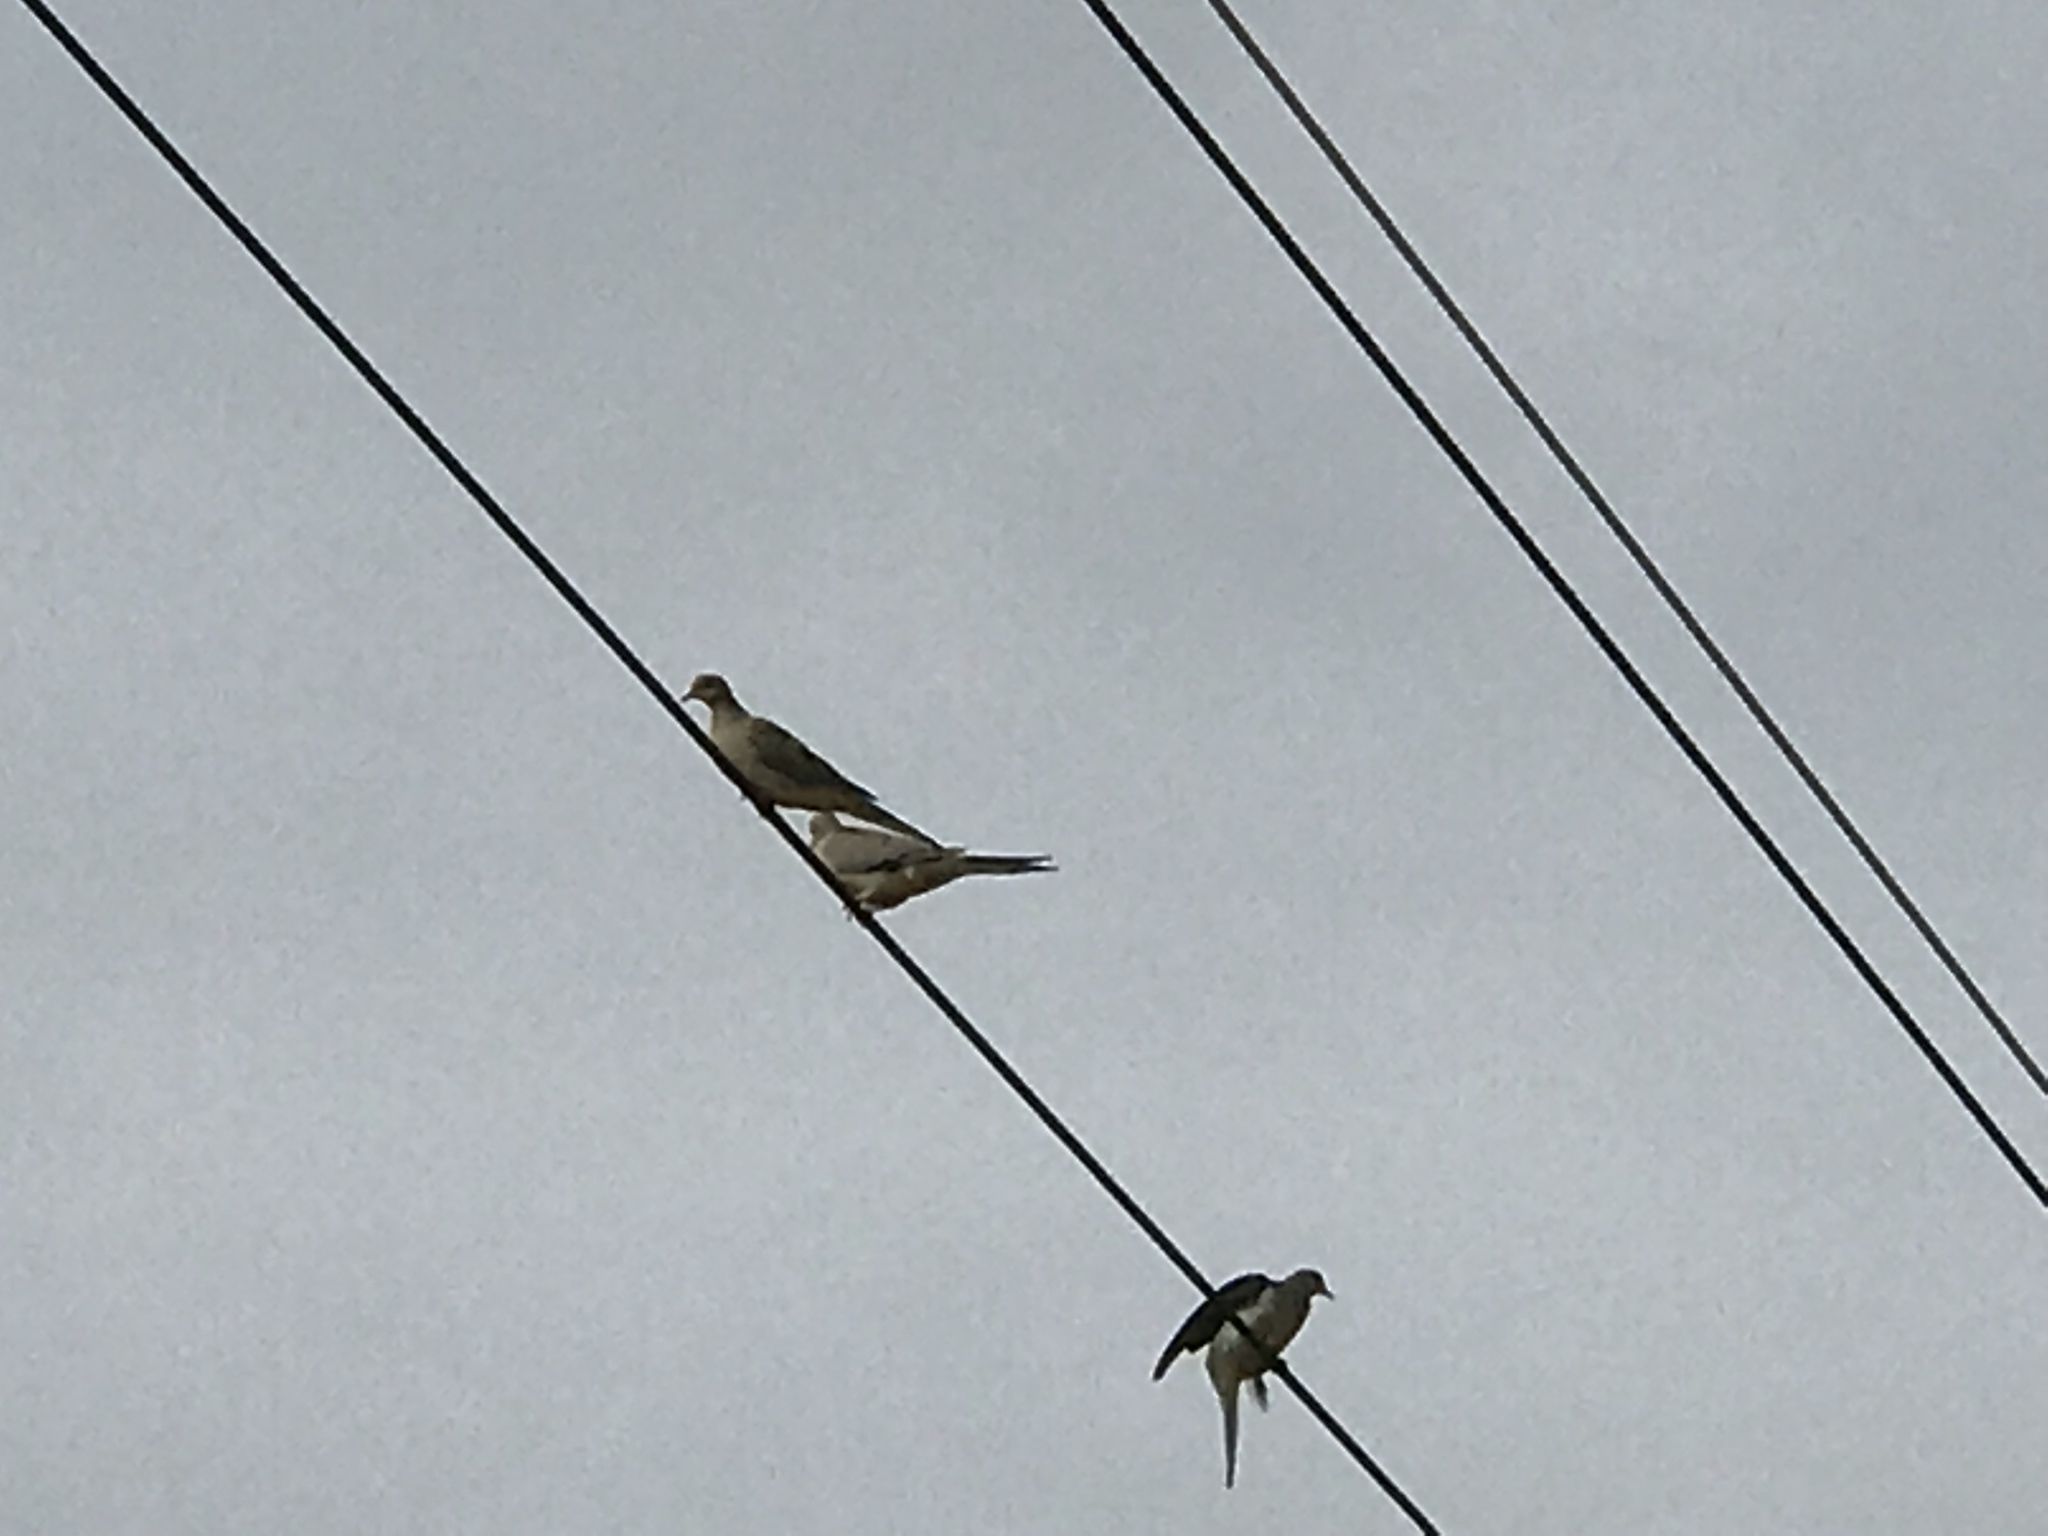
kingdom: Animalia
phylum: Chordata
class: Aves
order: Columbiformes
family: Columbidae
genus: Zenaida
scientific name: Zenaida macroura
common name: Mourning dove
